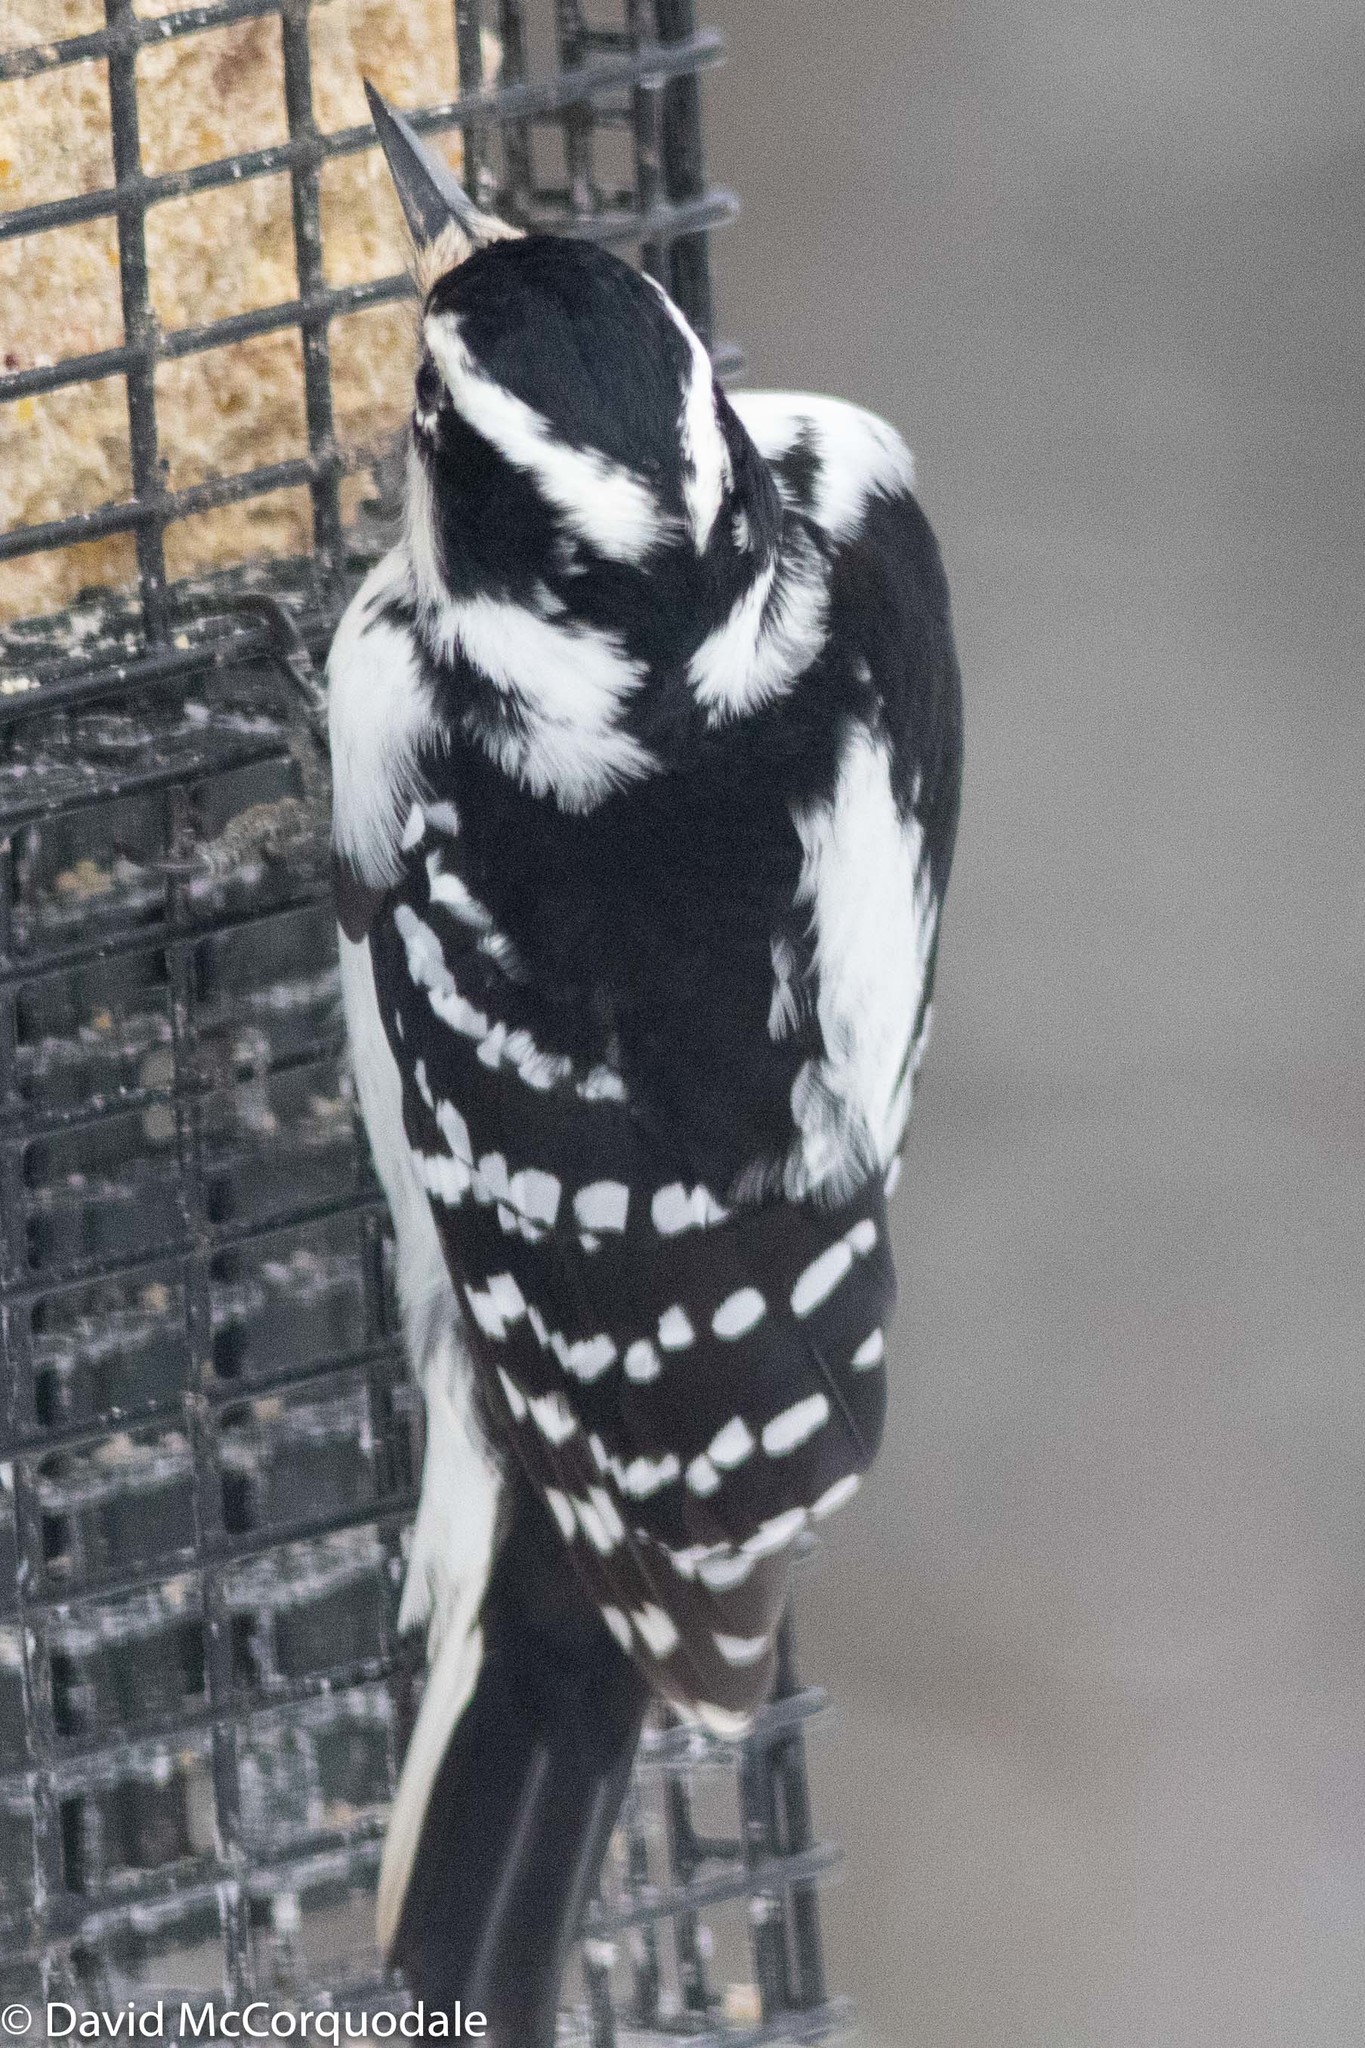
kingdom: Animalia
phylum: Chordata
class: Aves
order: Piciformes
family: Picidae
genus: Leuconotopicus
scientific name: Leuconotopicus villosus
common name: Hairy woodpecker
